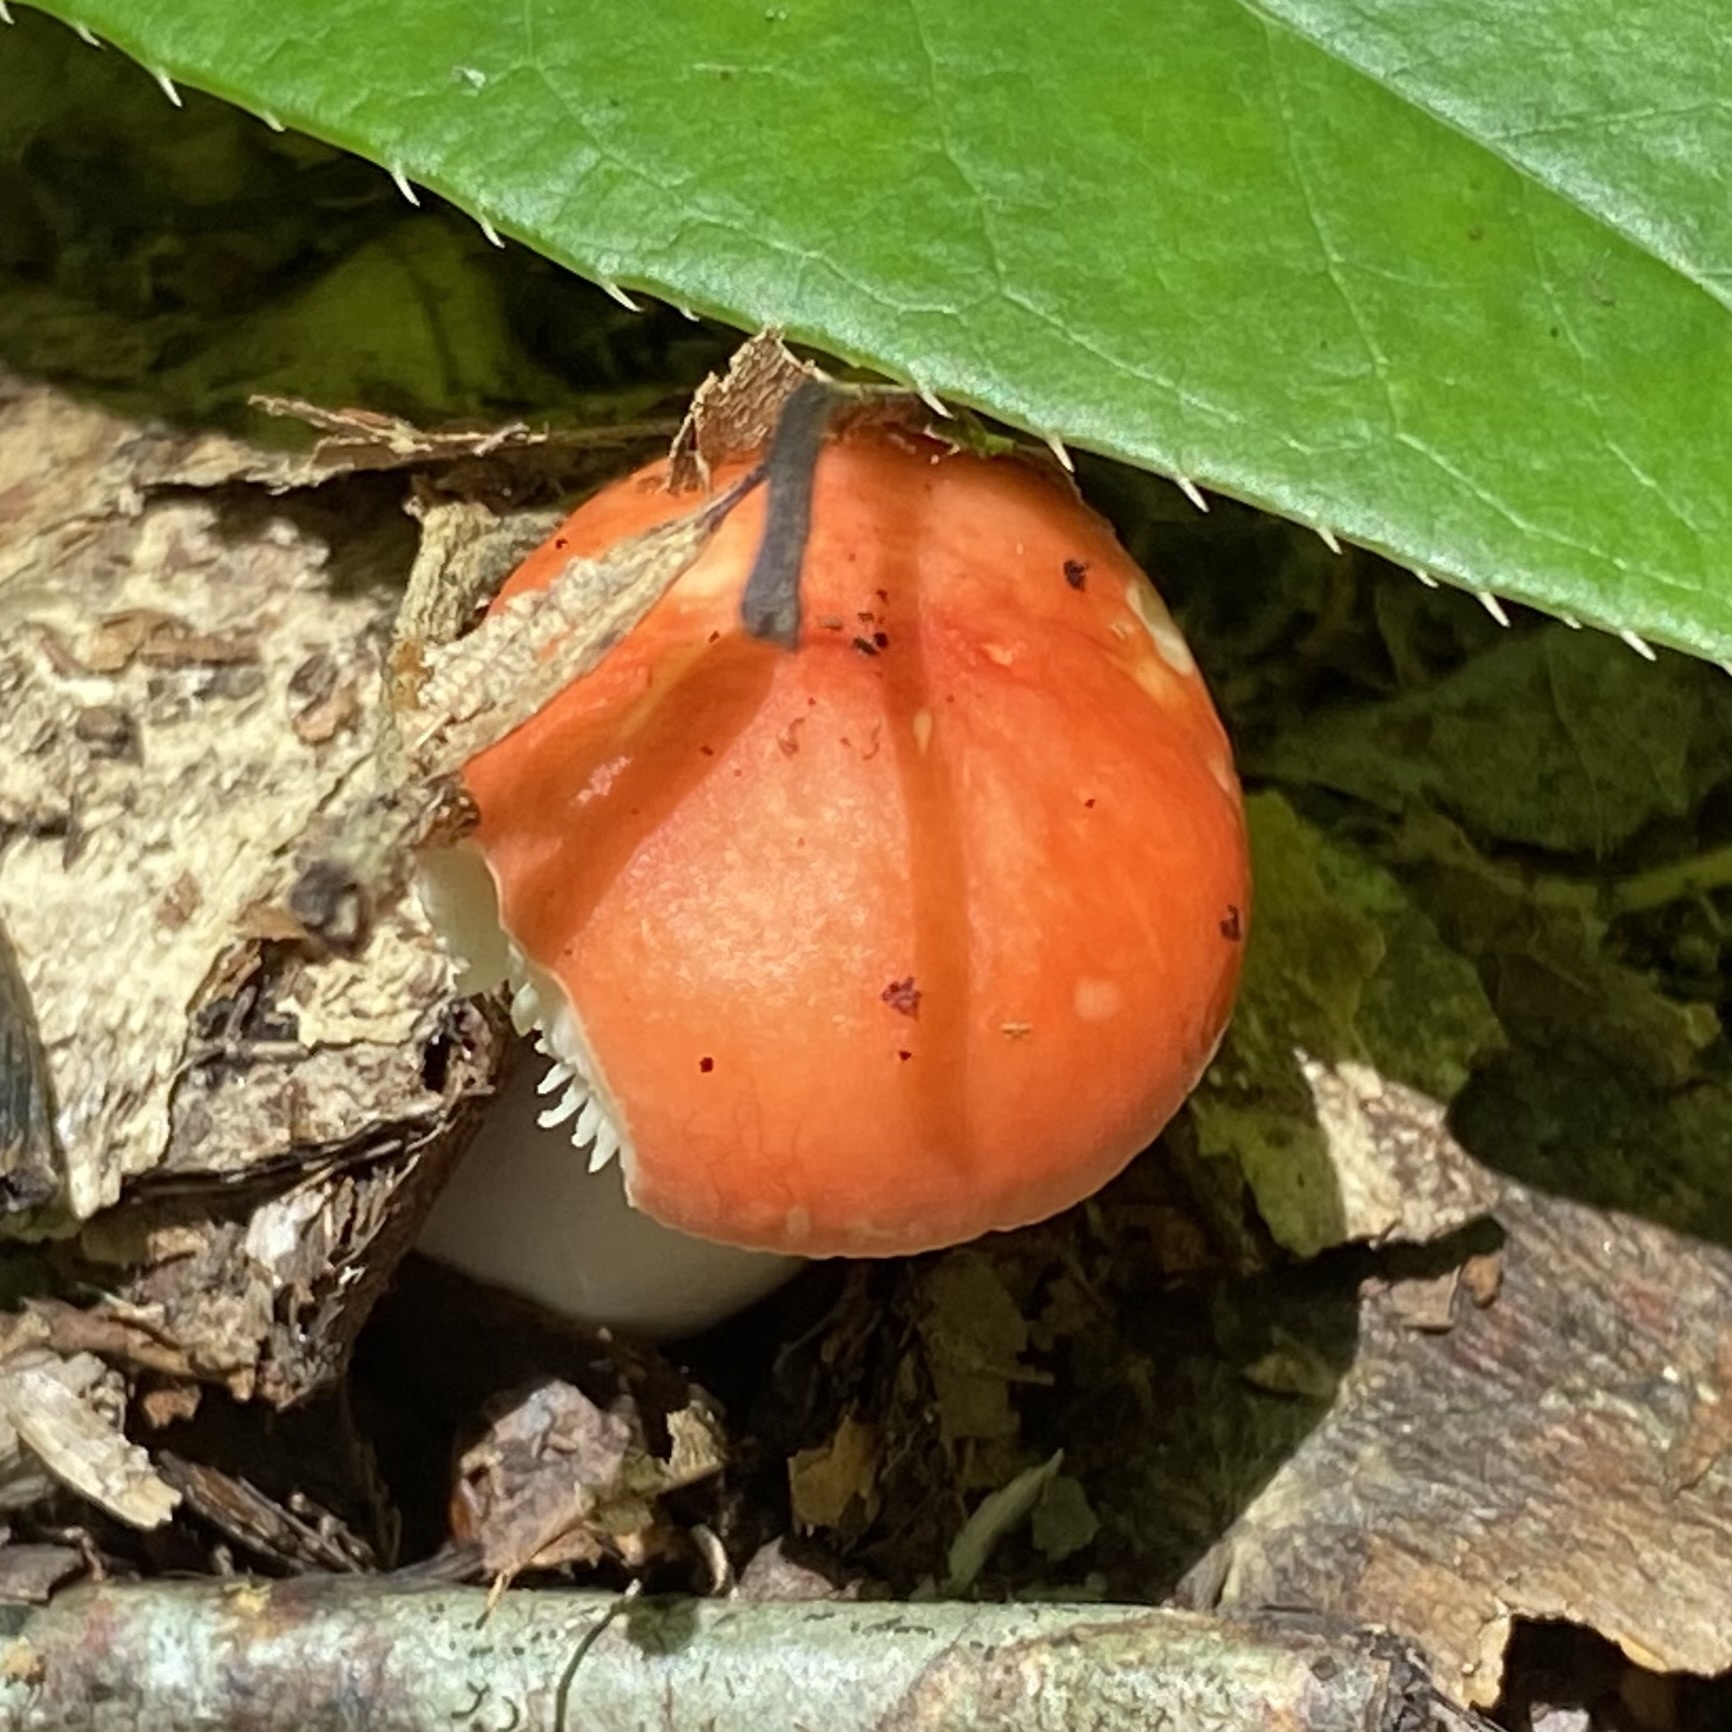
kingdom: Fungi
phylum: Basidiomycota
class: Agaricomycetes
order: Russulales
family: Russulaceae
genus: Russula
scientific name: Russula
